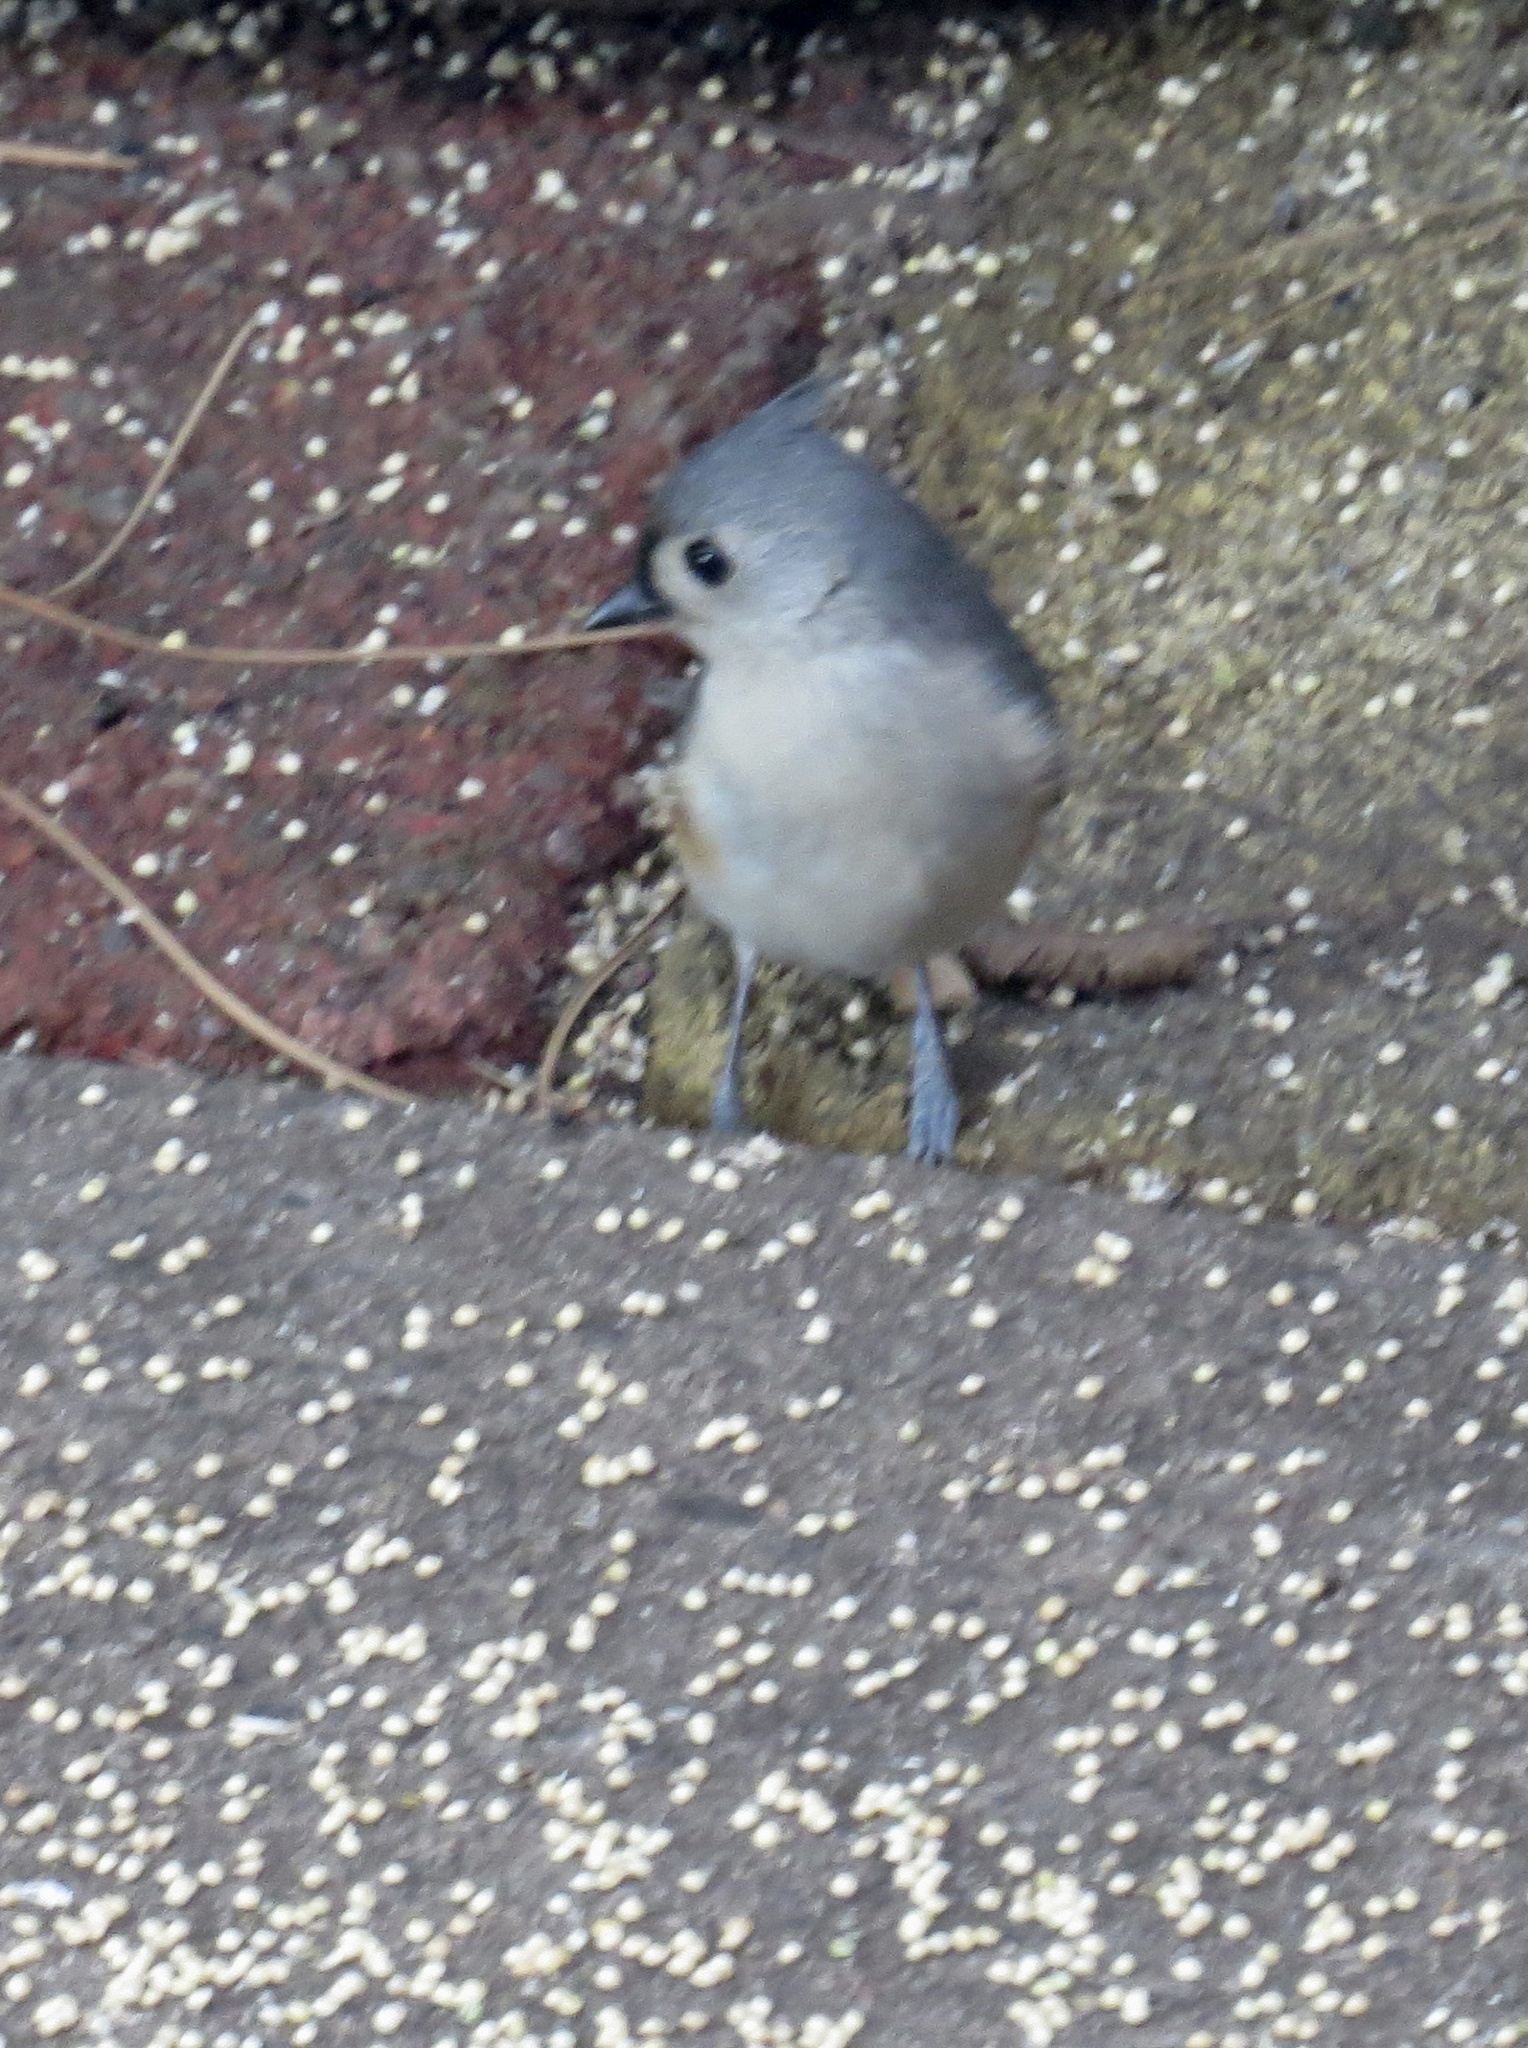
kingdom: Animalia
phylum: Chordata
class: Aves
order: Passeriformes
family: Paridae
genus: Baeolophus
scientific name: Baeolophus bicolor
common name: Tufted titmouse
